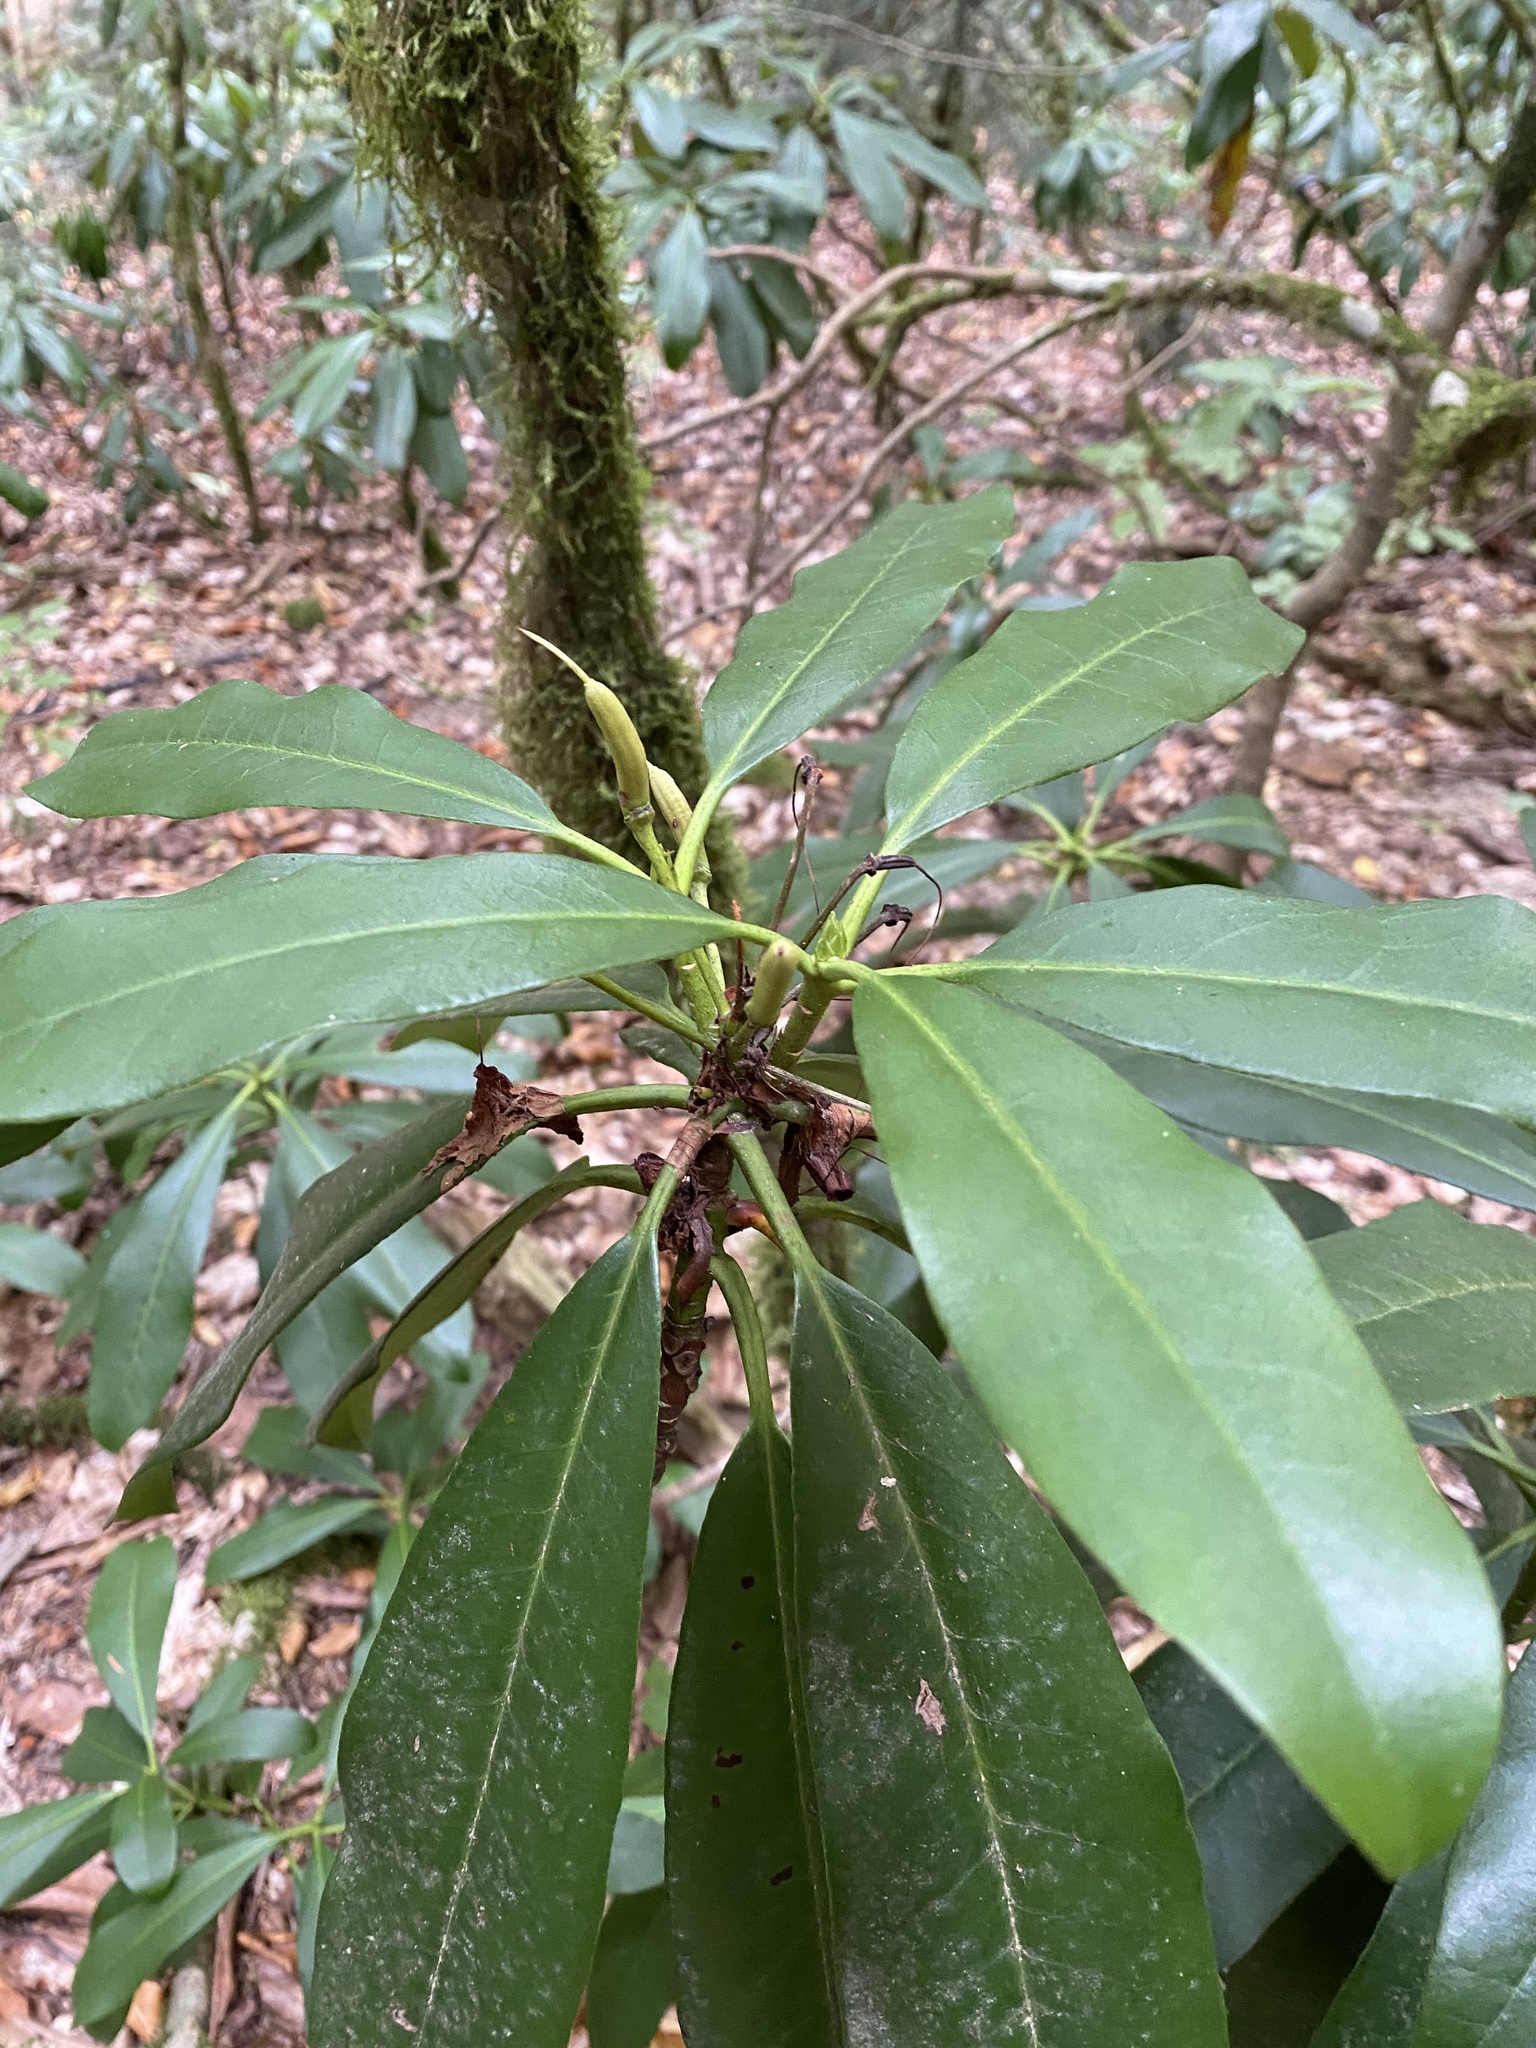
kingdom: Plantae
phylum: Tracheophyta
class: Magnoliopsida
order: Ericales
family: Ericaceae
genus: Rhododendron
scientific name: Rhododendron ponticum
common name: Rhododendron
